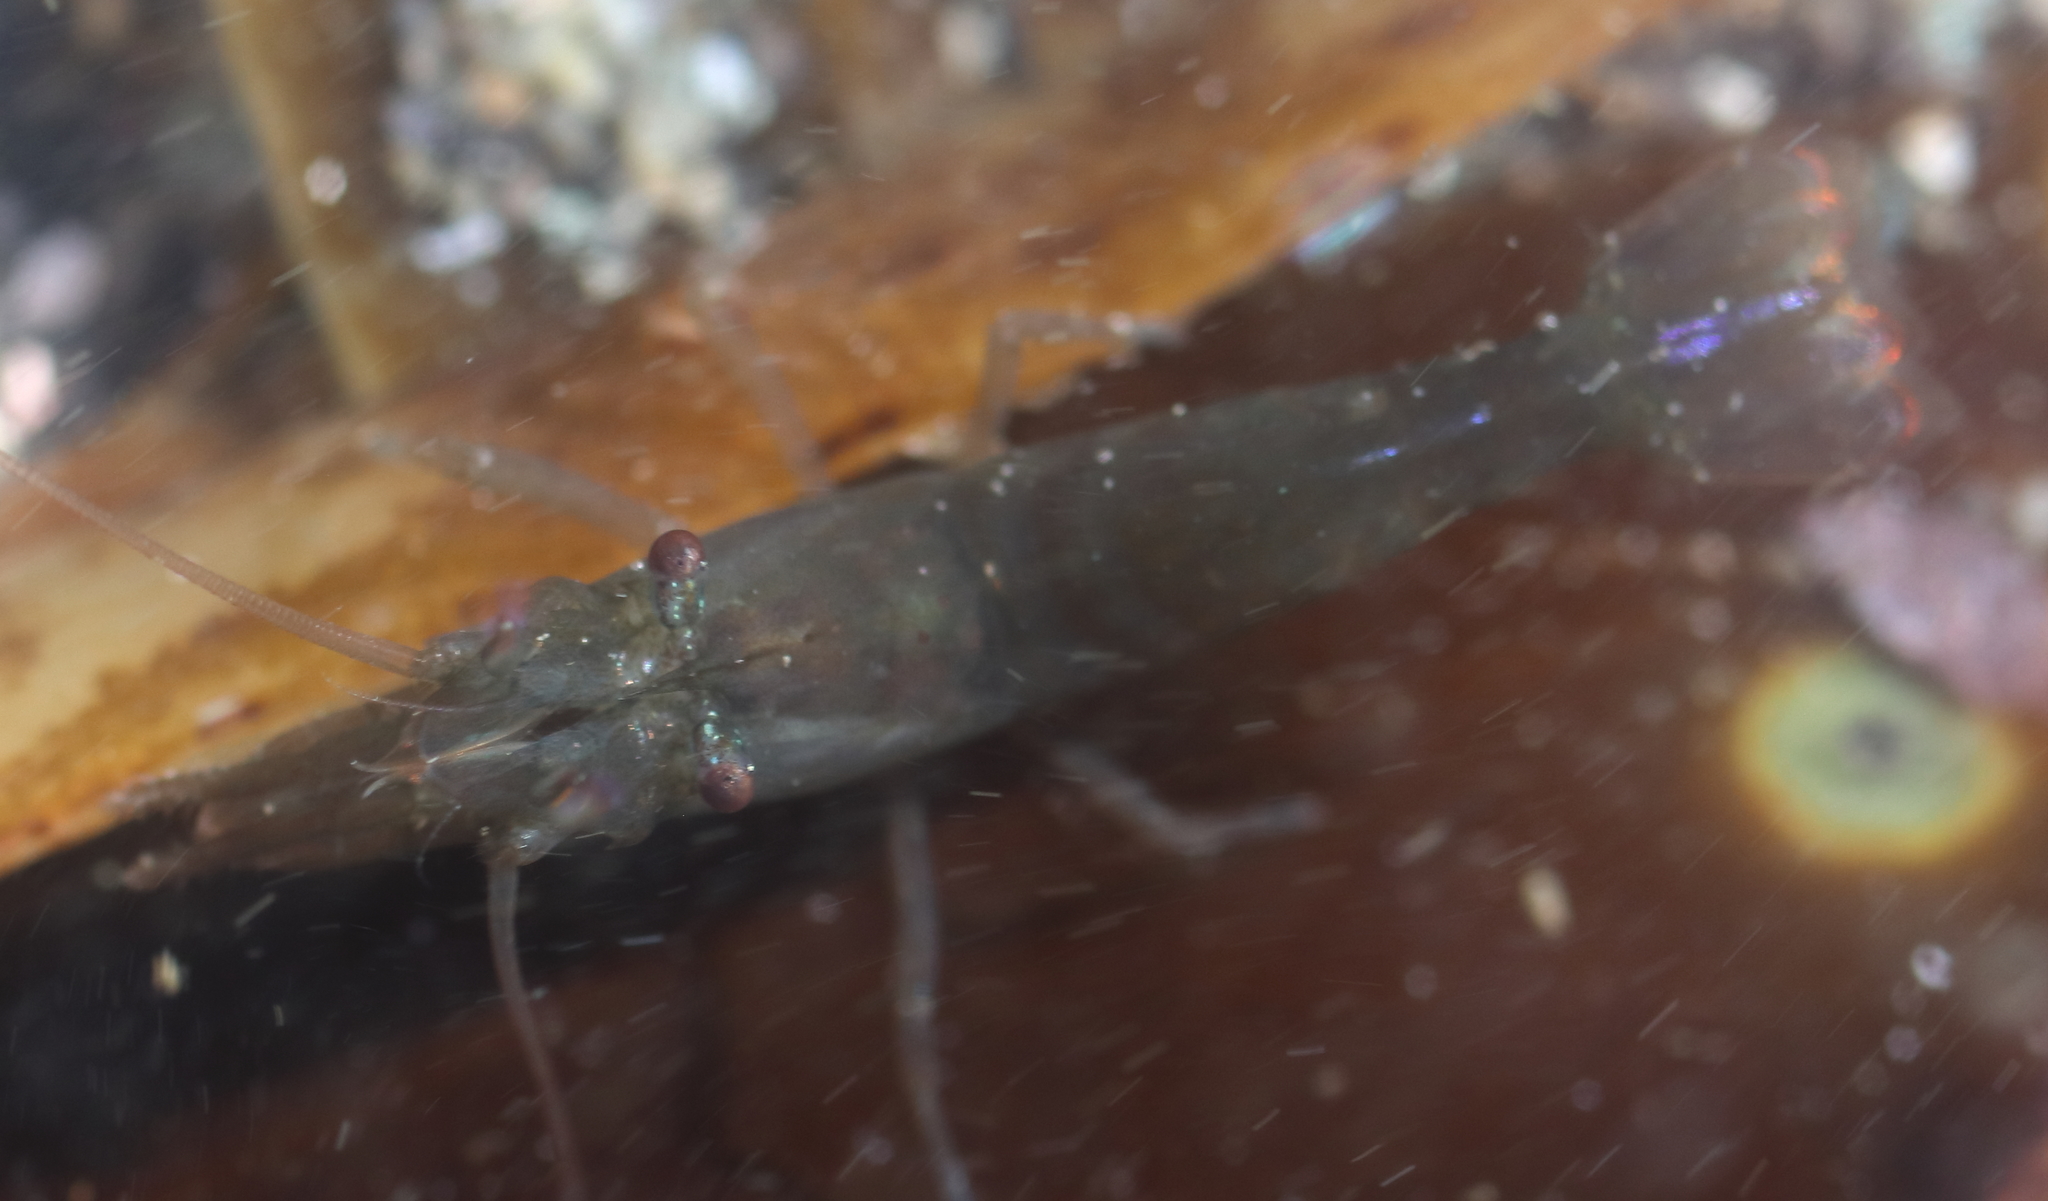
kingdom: Animalia
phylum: Arthropoda
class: Malacostraca
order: Decapoda
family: Thoridae
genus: Heptacarpus
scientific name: Heptacarpus brevirostris
